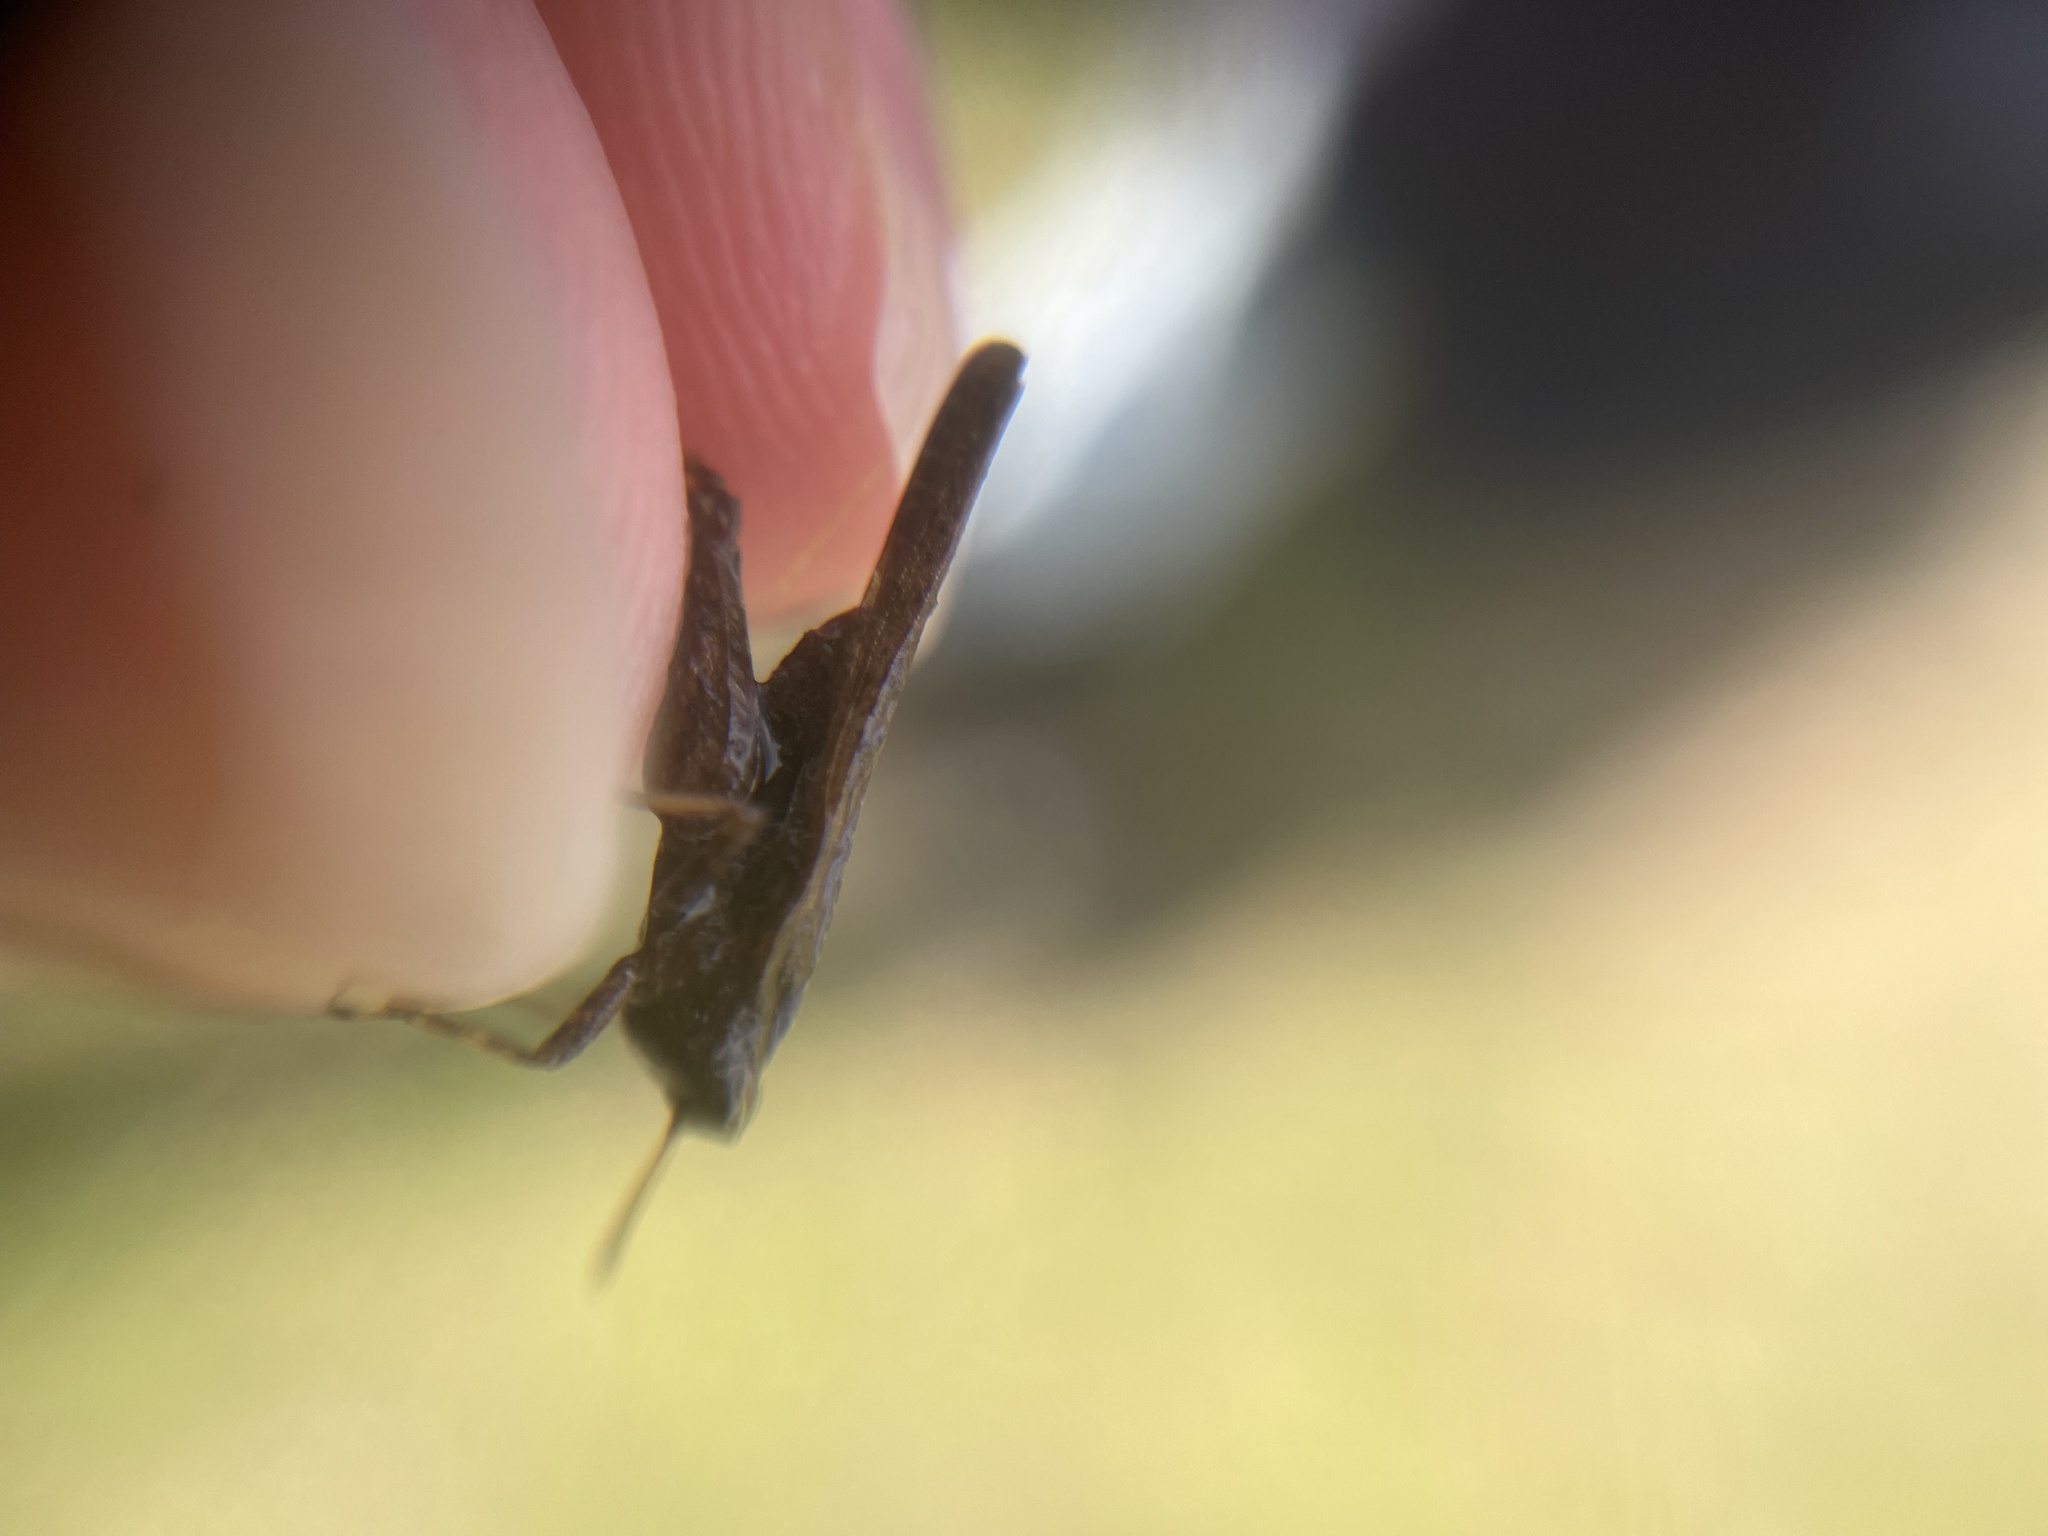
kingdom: Animalia
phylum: Arthropoda
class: Insecta
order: Orthoptera
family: Tetrigidae
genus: Tetrix
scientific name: Tetrix subulata
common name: Slender ground-hopper
